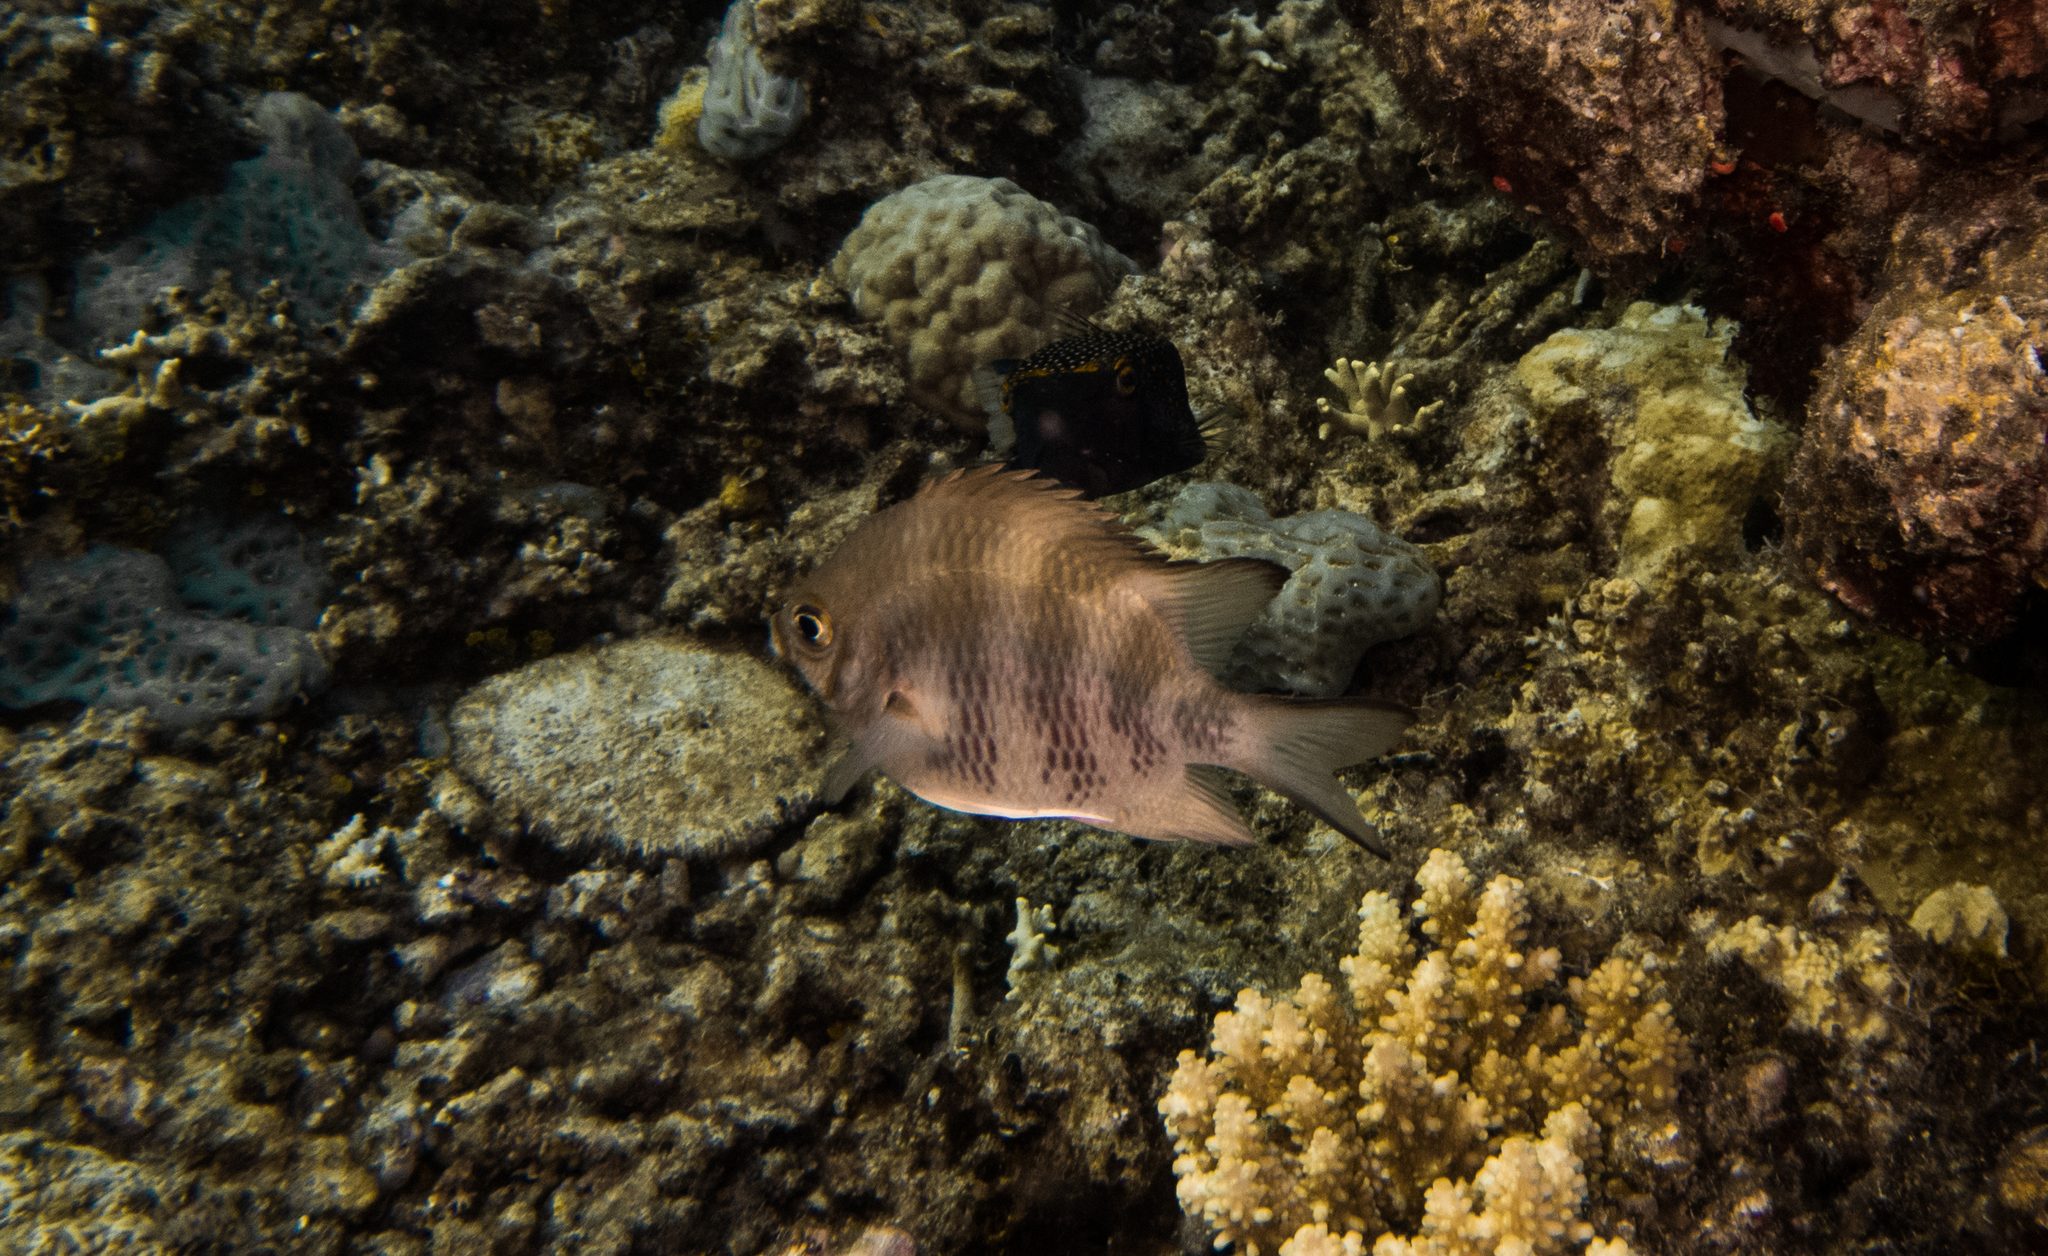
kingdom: Animalia
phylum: Chordata
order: Perciformes
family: Pomacentridae
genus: Amblyglyphidodon
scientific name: Amblyglyphidodon curacao
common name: Staghorn damsel
